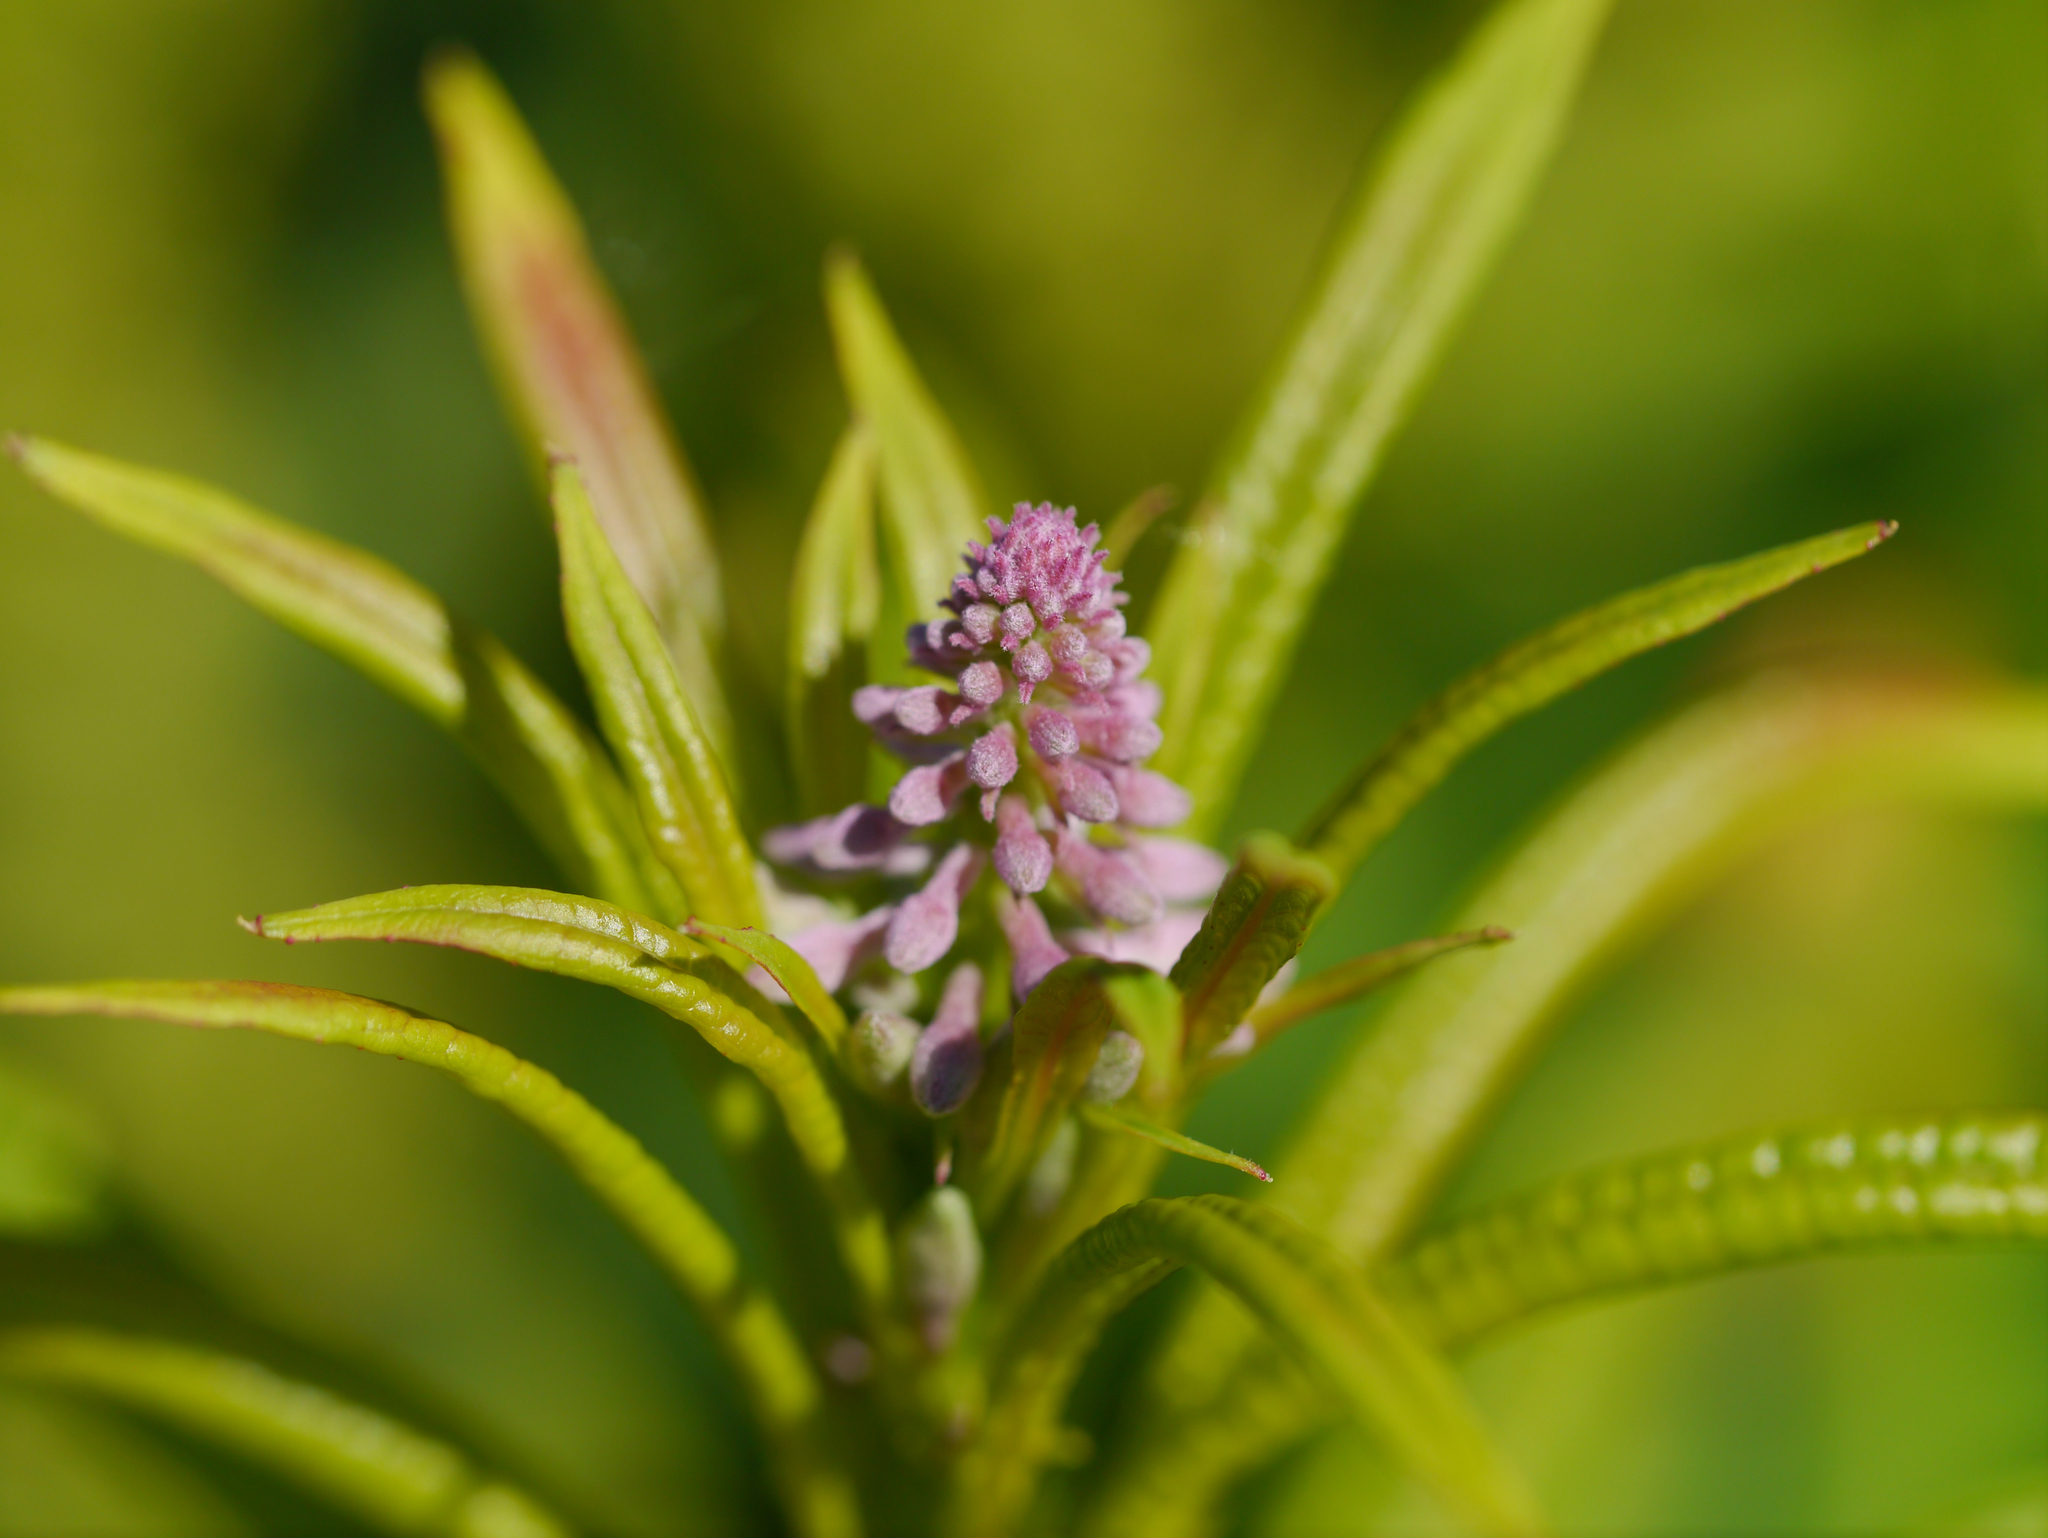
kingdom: Plantae
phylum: Tracheophyta
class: Magnoliopsida
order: Myrtales
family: Onagraceae
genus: Chamaenerion
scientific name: Chamaenerion angustifolium
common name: Fireweed
